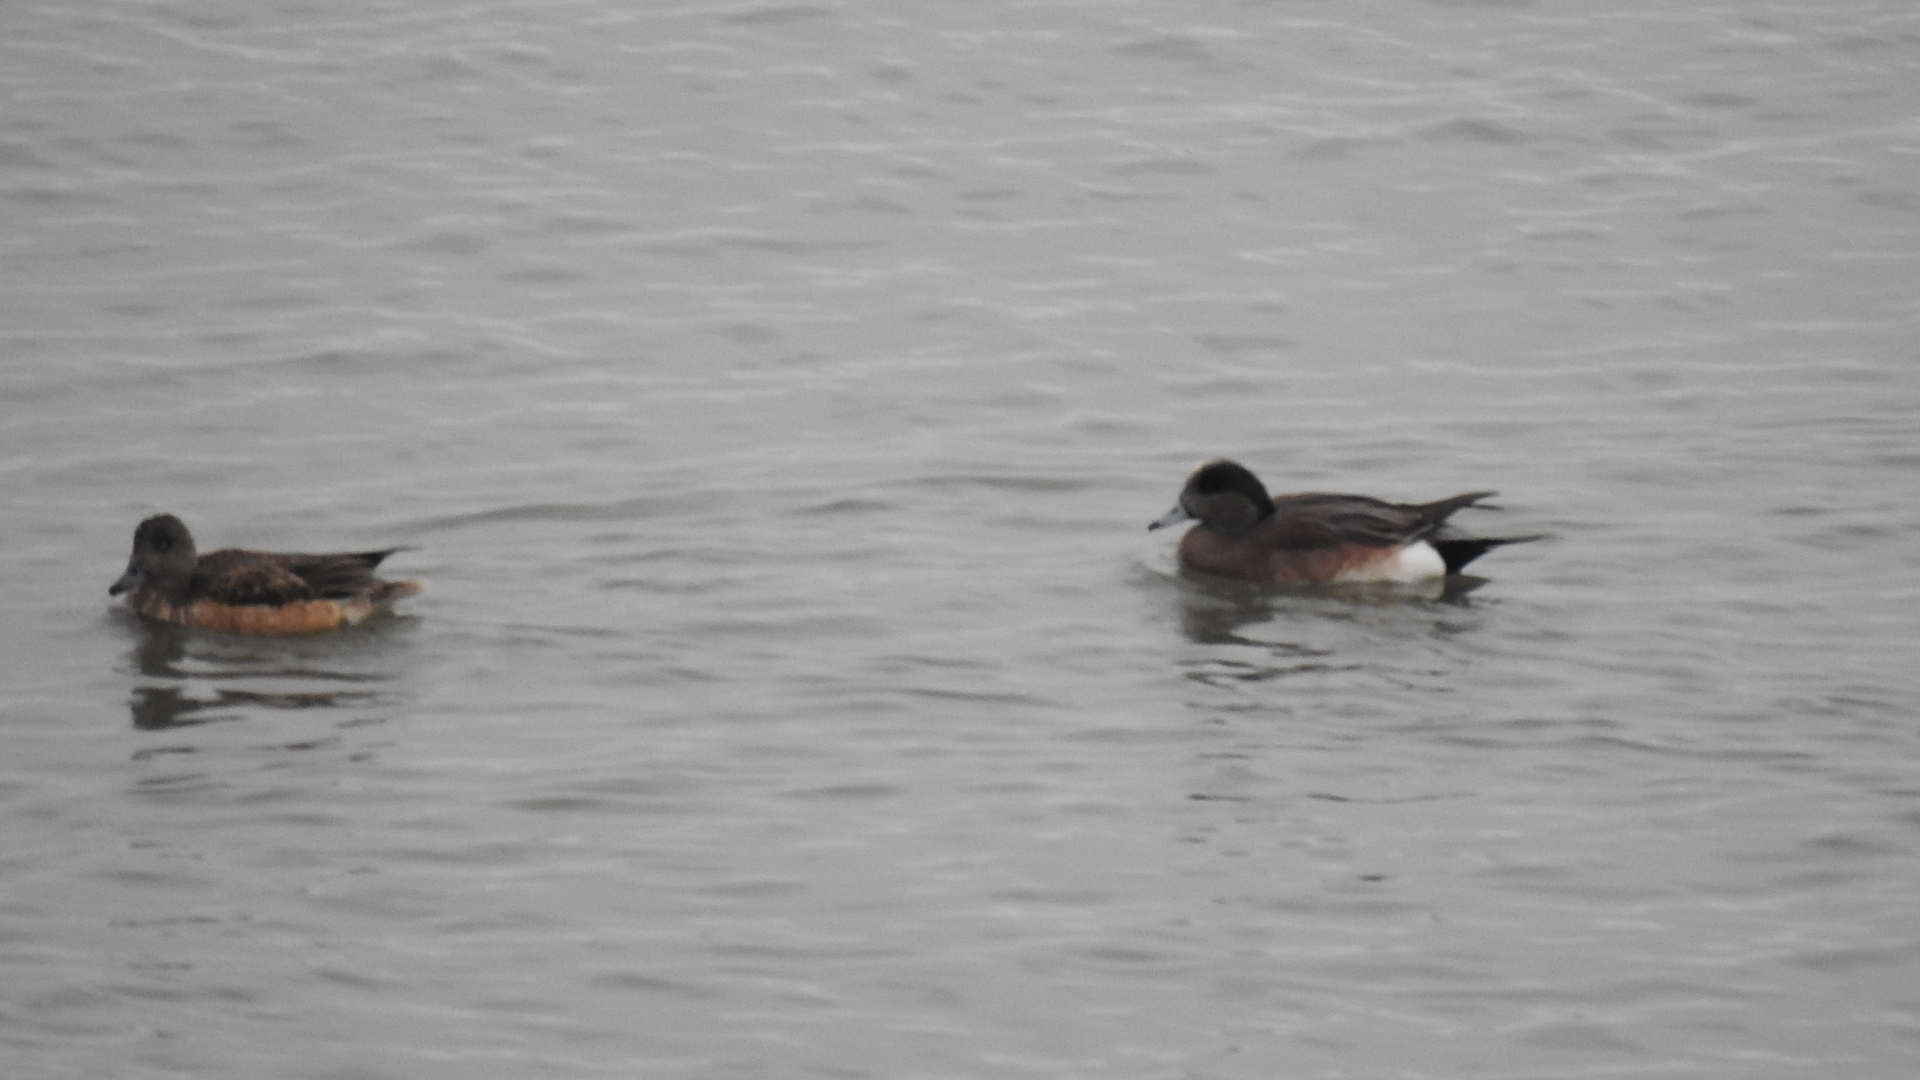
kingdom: Animalia
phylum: Chordata
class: Aves
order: Anseriformes
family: Anatidae
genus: Mareca
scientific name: Mareca americana
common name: American wigeon
